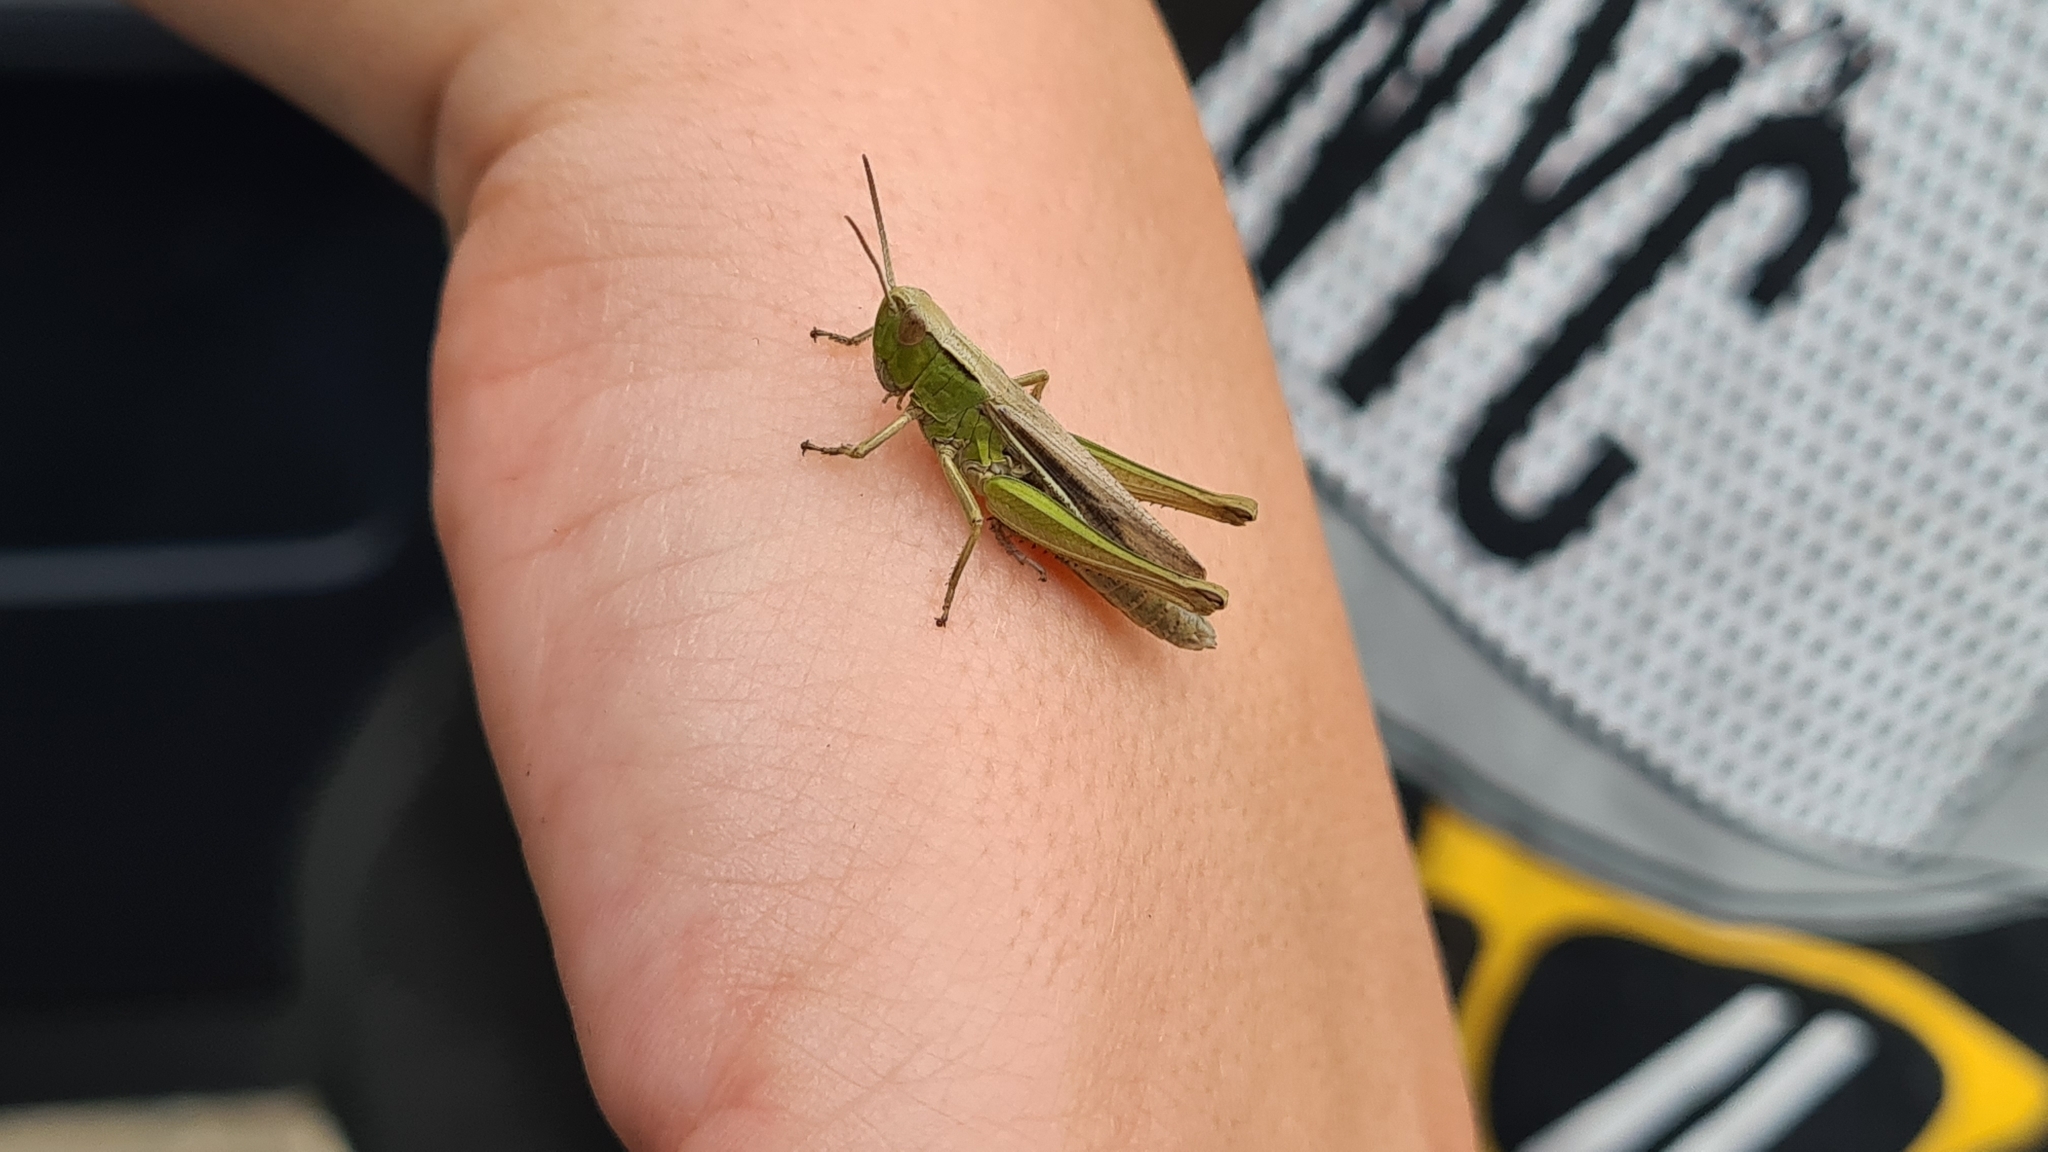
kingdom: Animalia
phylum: Arthropoda
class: Insecta
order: Orthoptera
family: Acrididae
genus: Chorthippus
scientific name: Chorthippus albomarginatus
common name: Lesser marsh grasshopper
